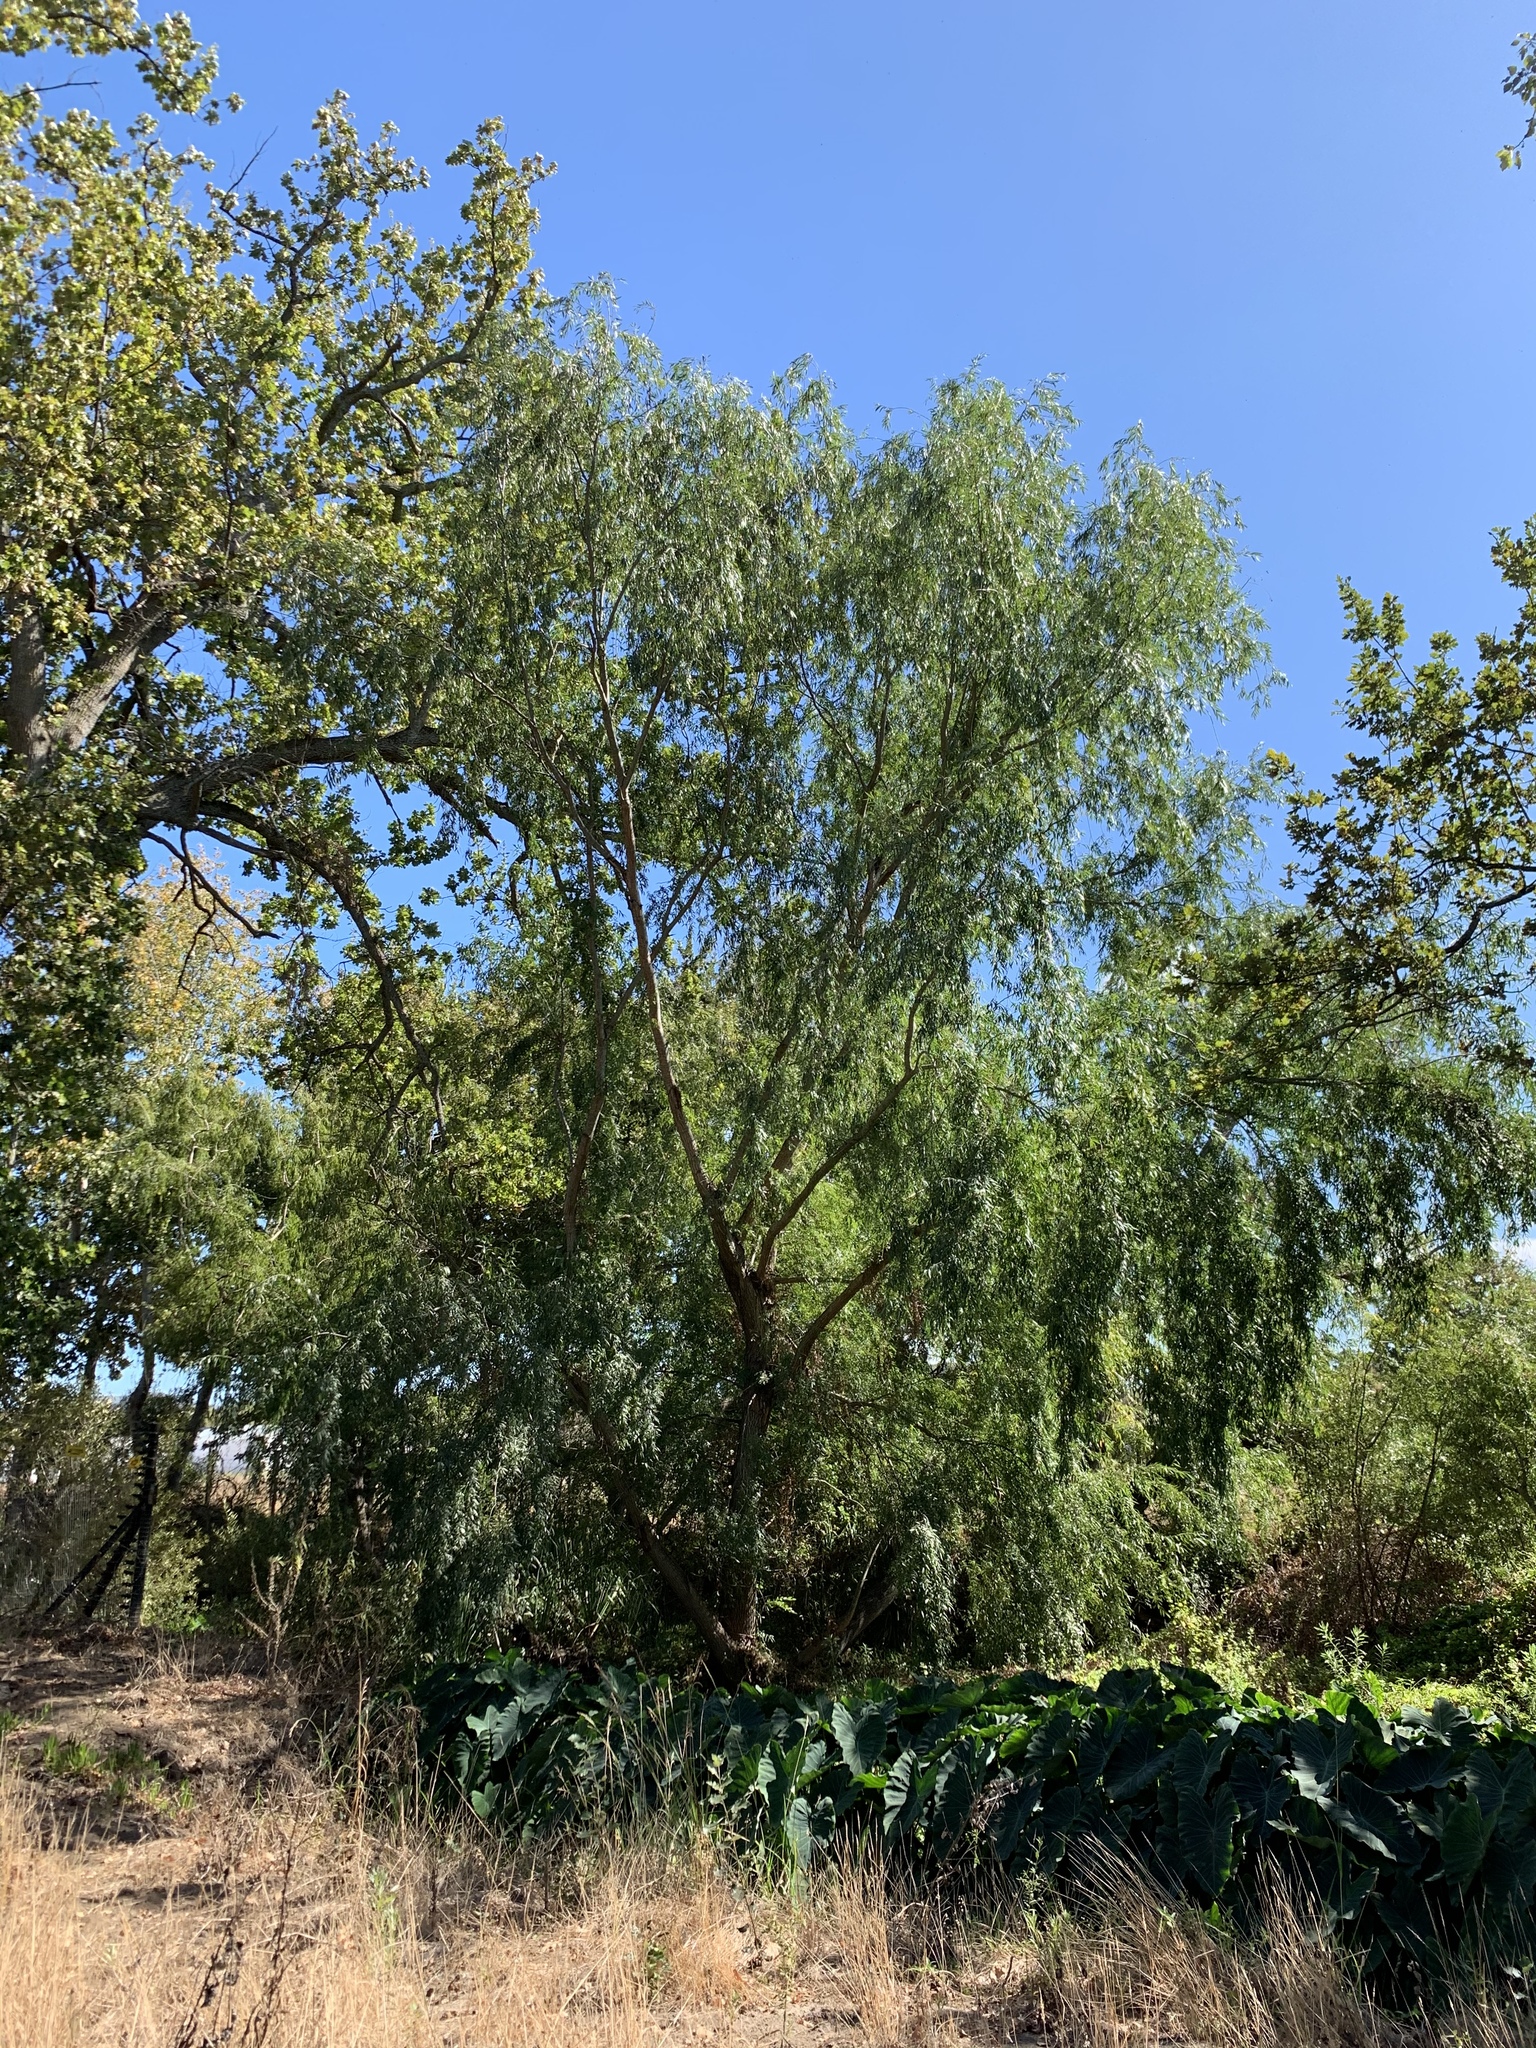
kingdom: Plantae
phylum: Tracheophyta
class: Magnoliopsida
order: Malpighiales
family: Salicaceae
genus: Salix
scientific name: Salix babylonica
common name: Weeping willow
